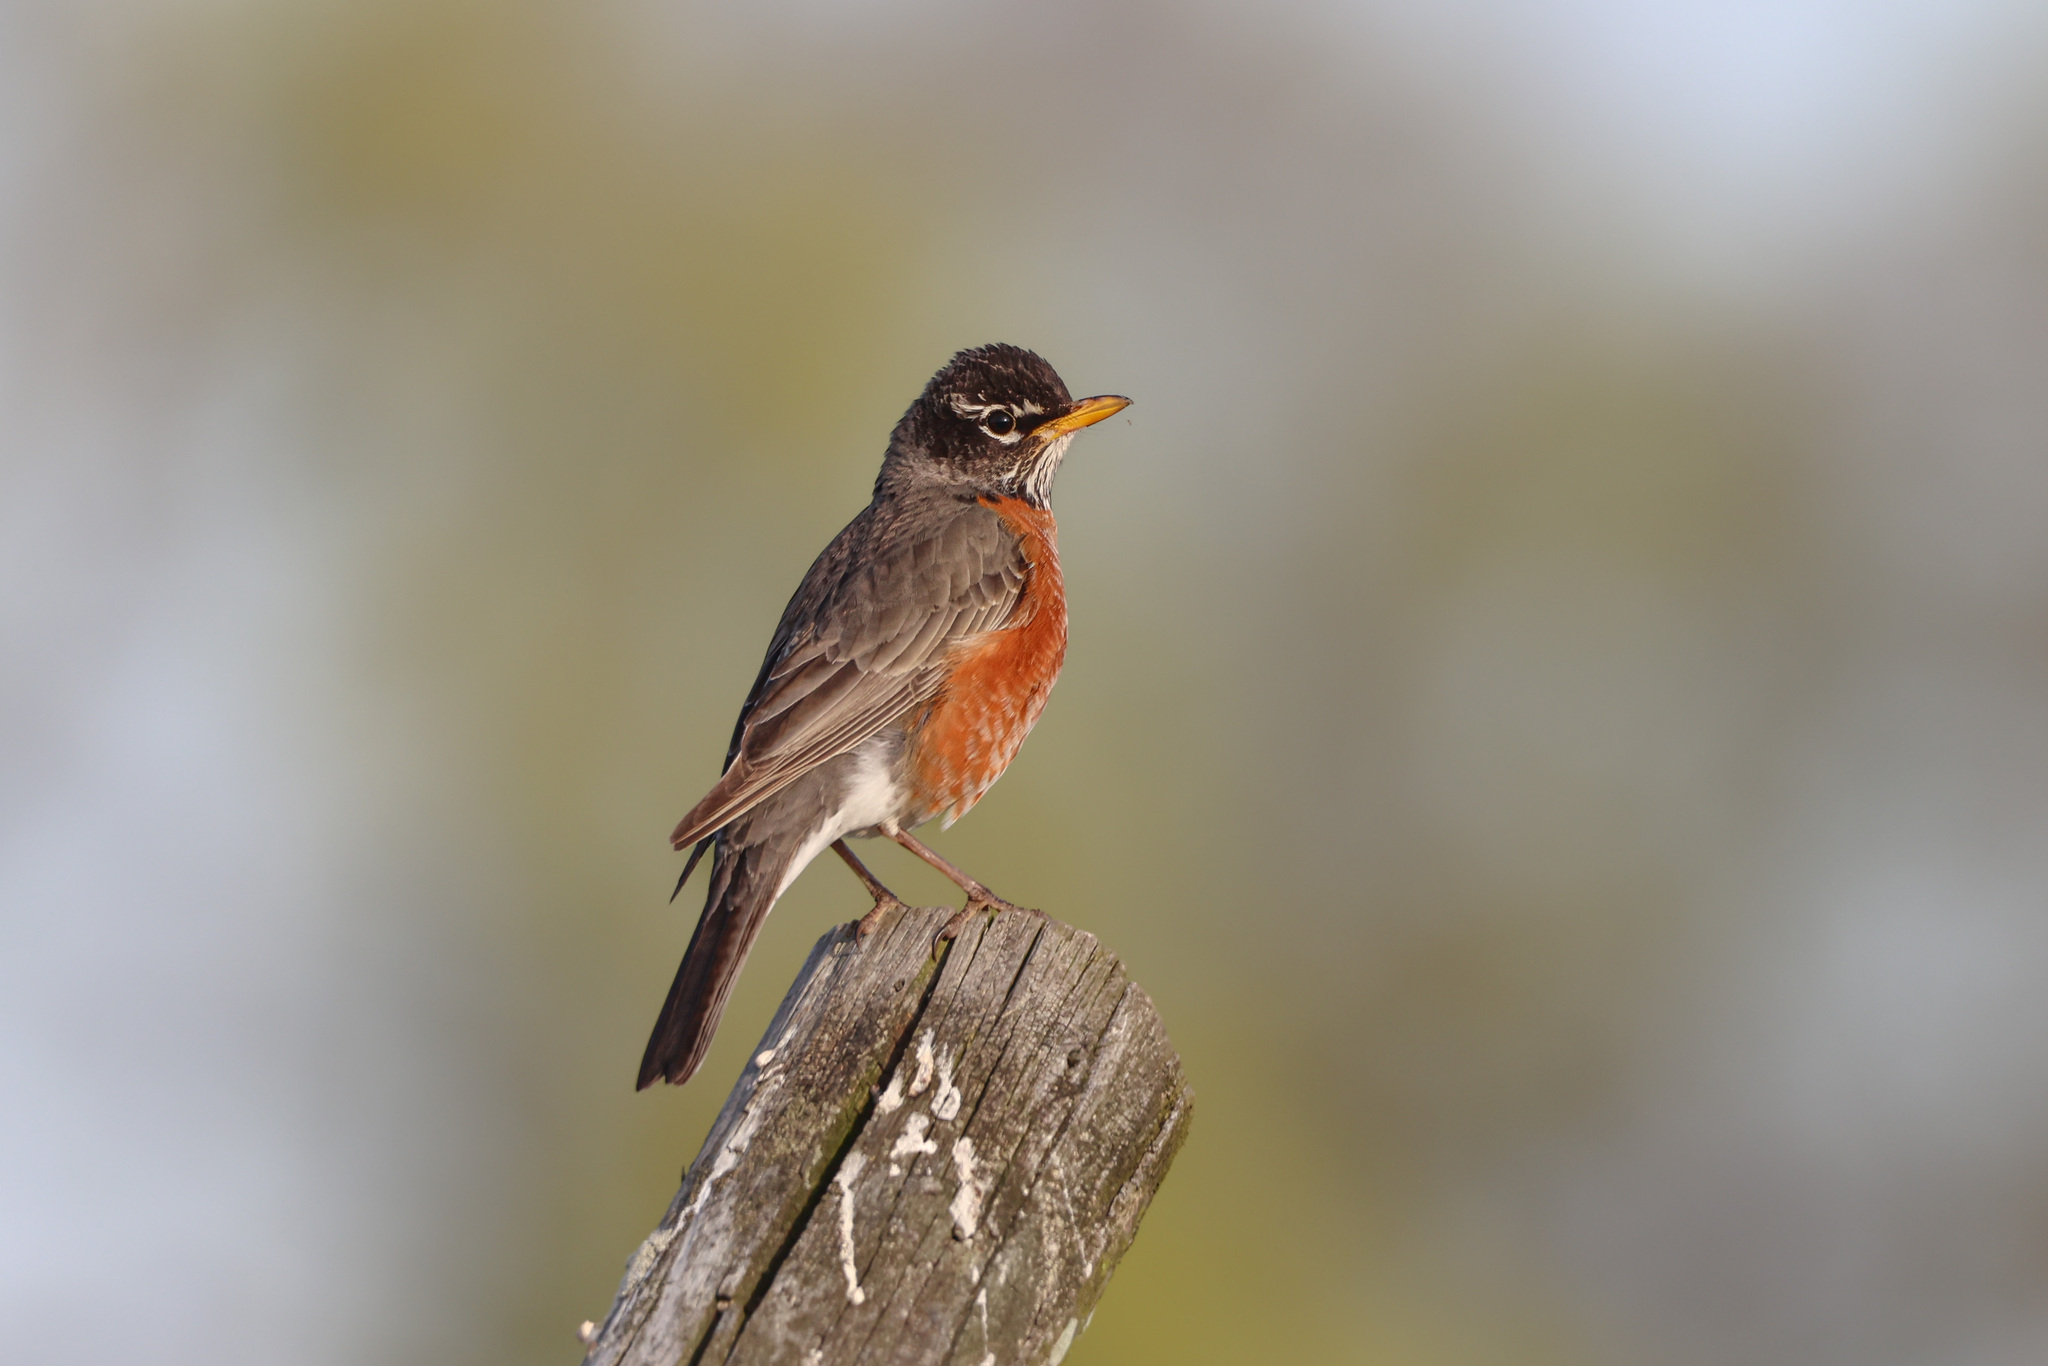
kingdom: Animalia
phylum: Chordata
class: Aves
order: Passeriformes
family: Turdidae
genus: Turdus
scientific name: Turdus migratorius
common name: American robin
